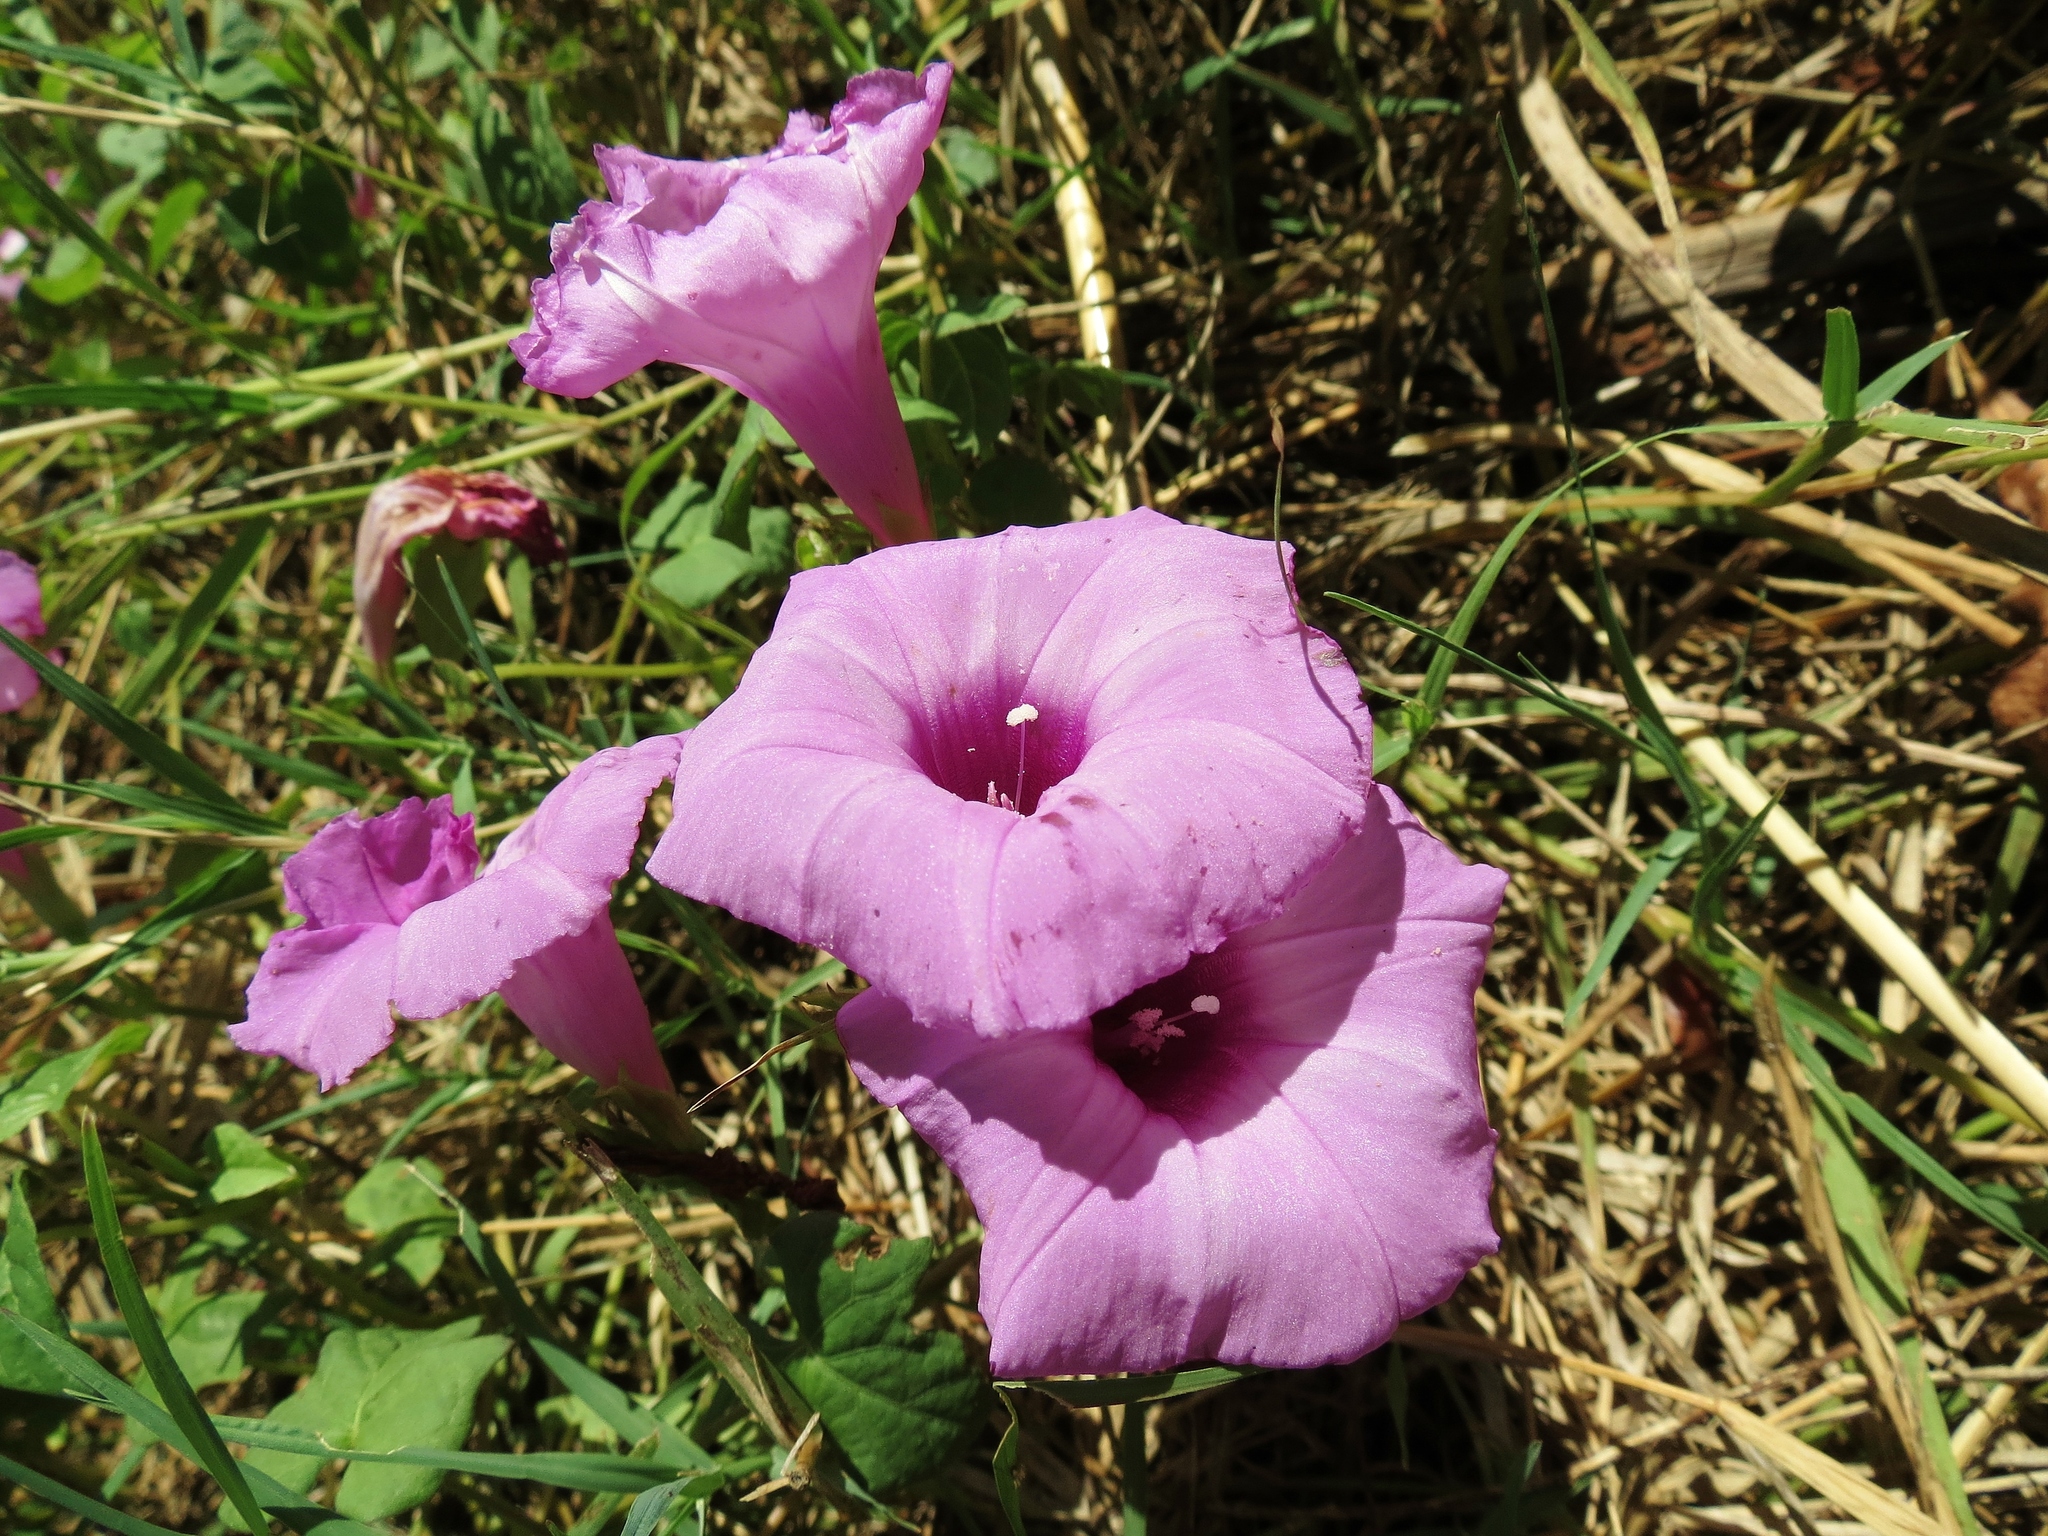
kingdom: Plantae
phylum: Tracheophyta
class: Magnoliopsida
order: Solanales
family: Convolvulaceae
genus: Ipomoea
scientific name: Ipomoea cordatotriloba
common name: Cotton morning glory
